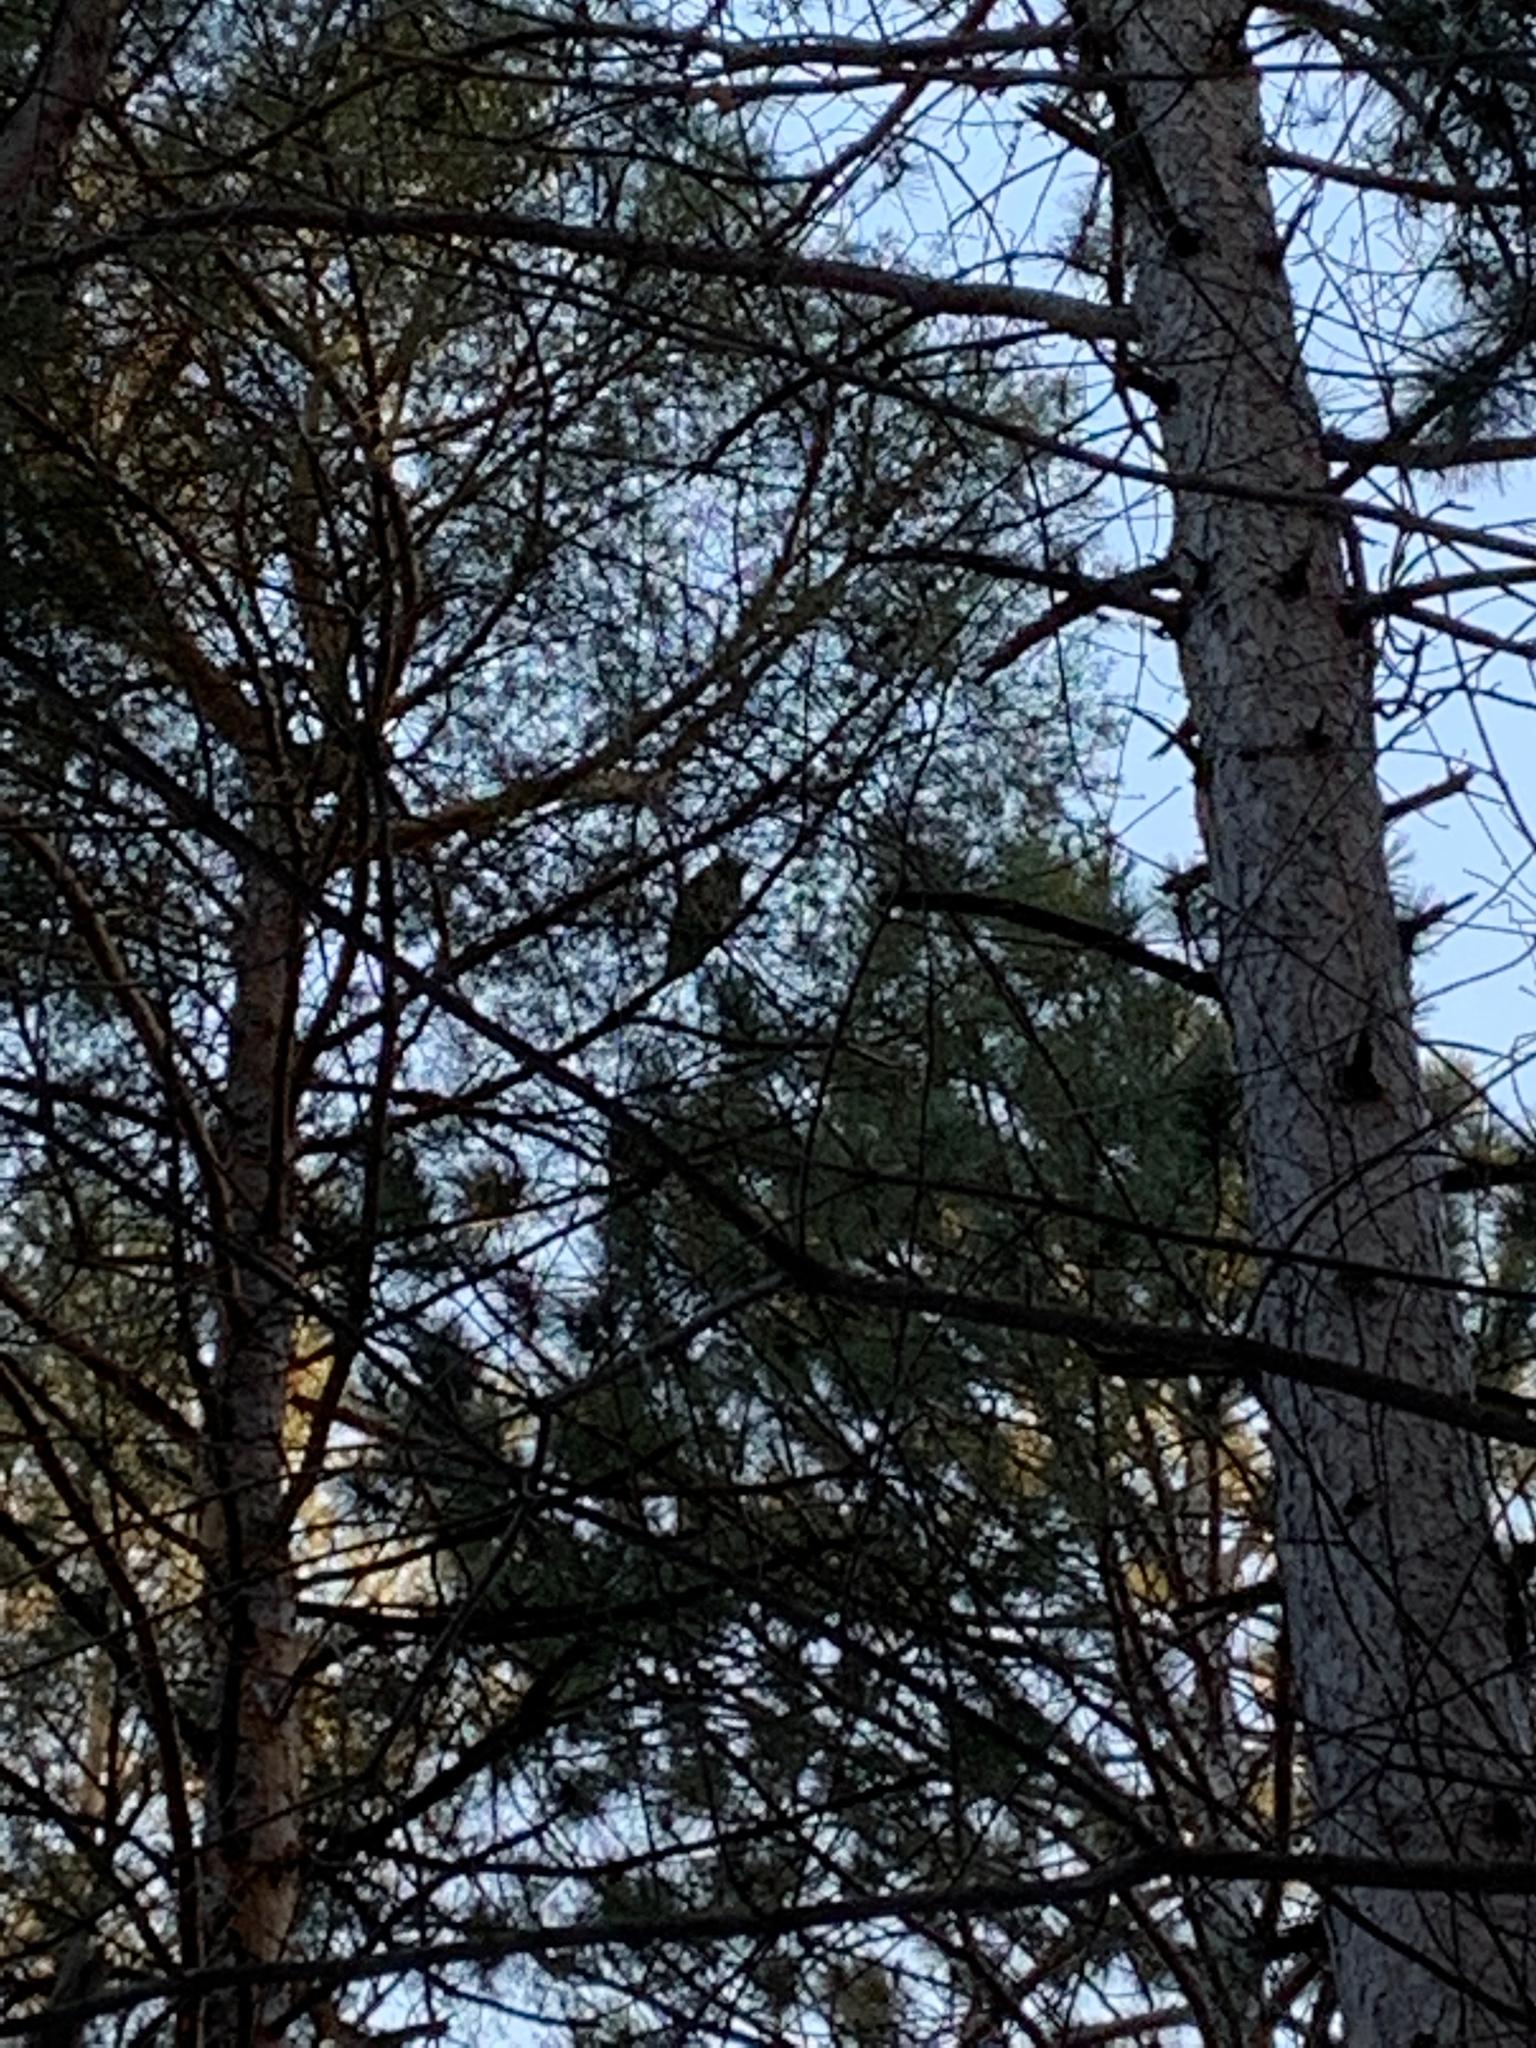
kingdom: Animalia
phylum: Chordata
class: Aves
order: Strigiformes
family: Strigidae
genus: Bubo
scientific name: Bubo virginianus
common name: Great horned owl
